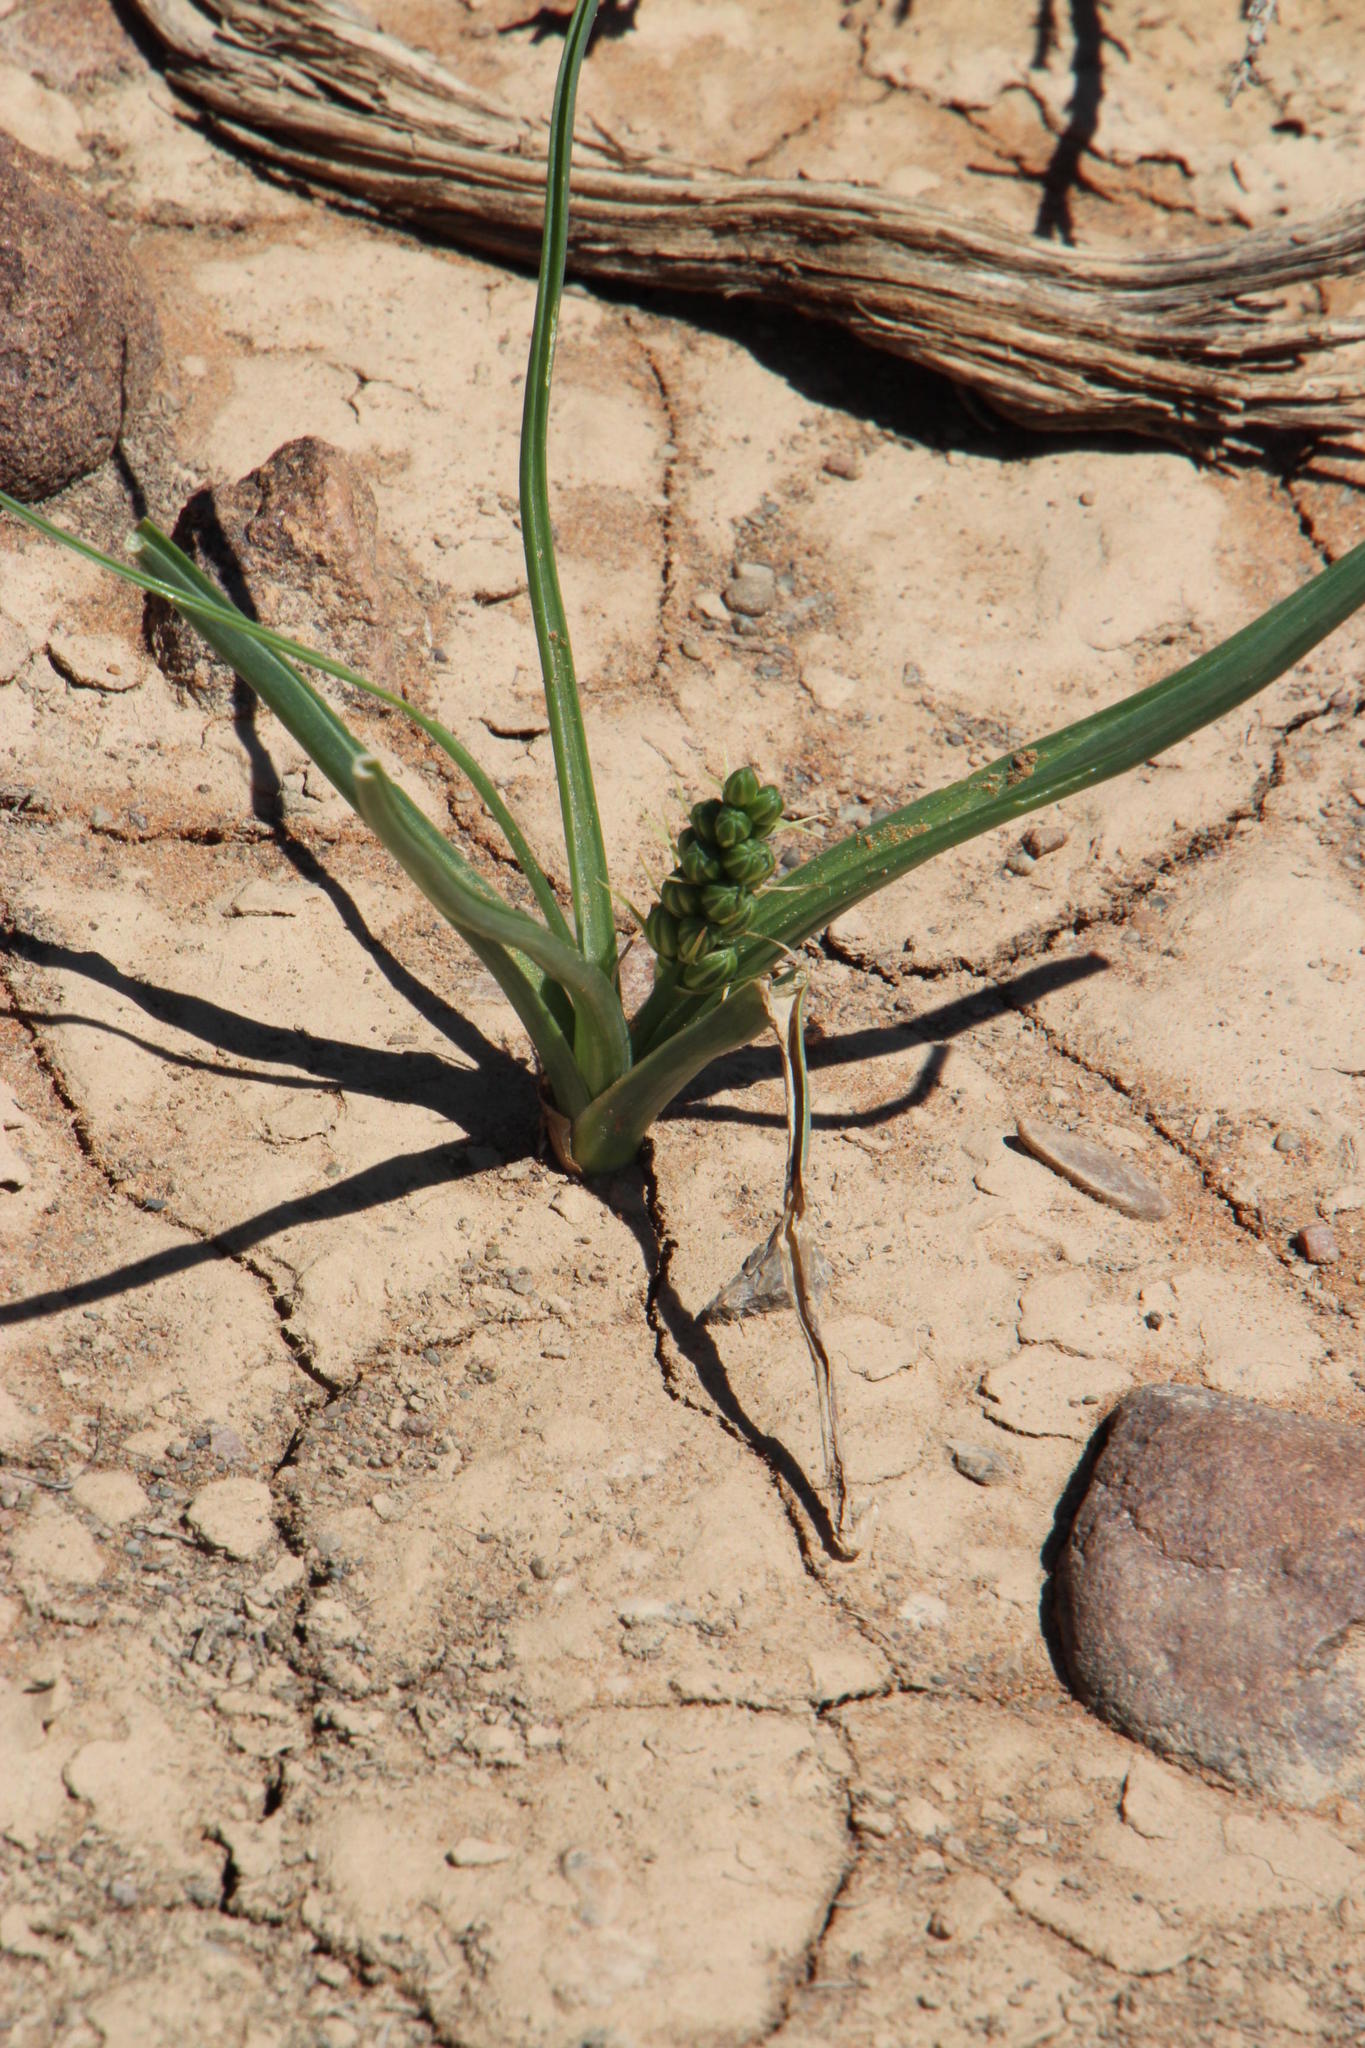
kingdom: Plantae
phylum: Tracheophyta
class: Liliopsida
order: Asparagales
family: Asparagaceae
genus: Albuca
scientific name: Albuca virens
